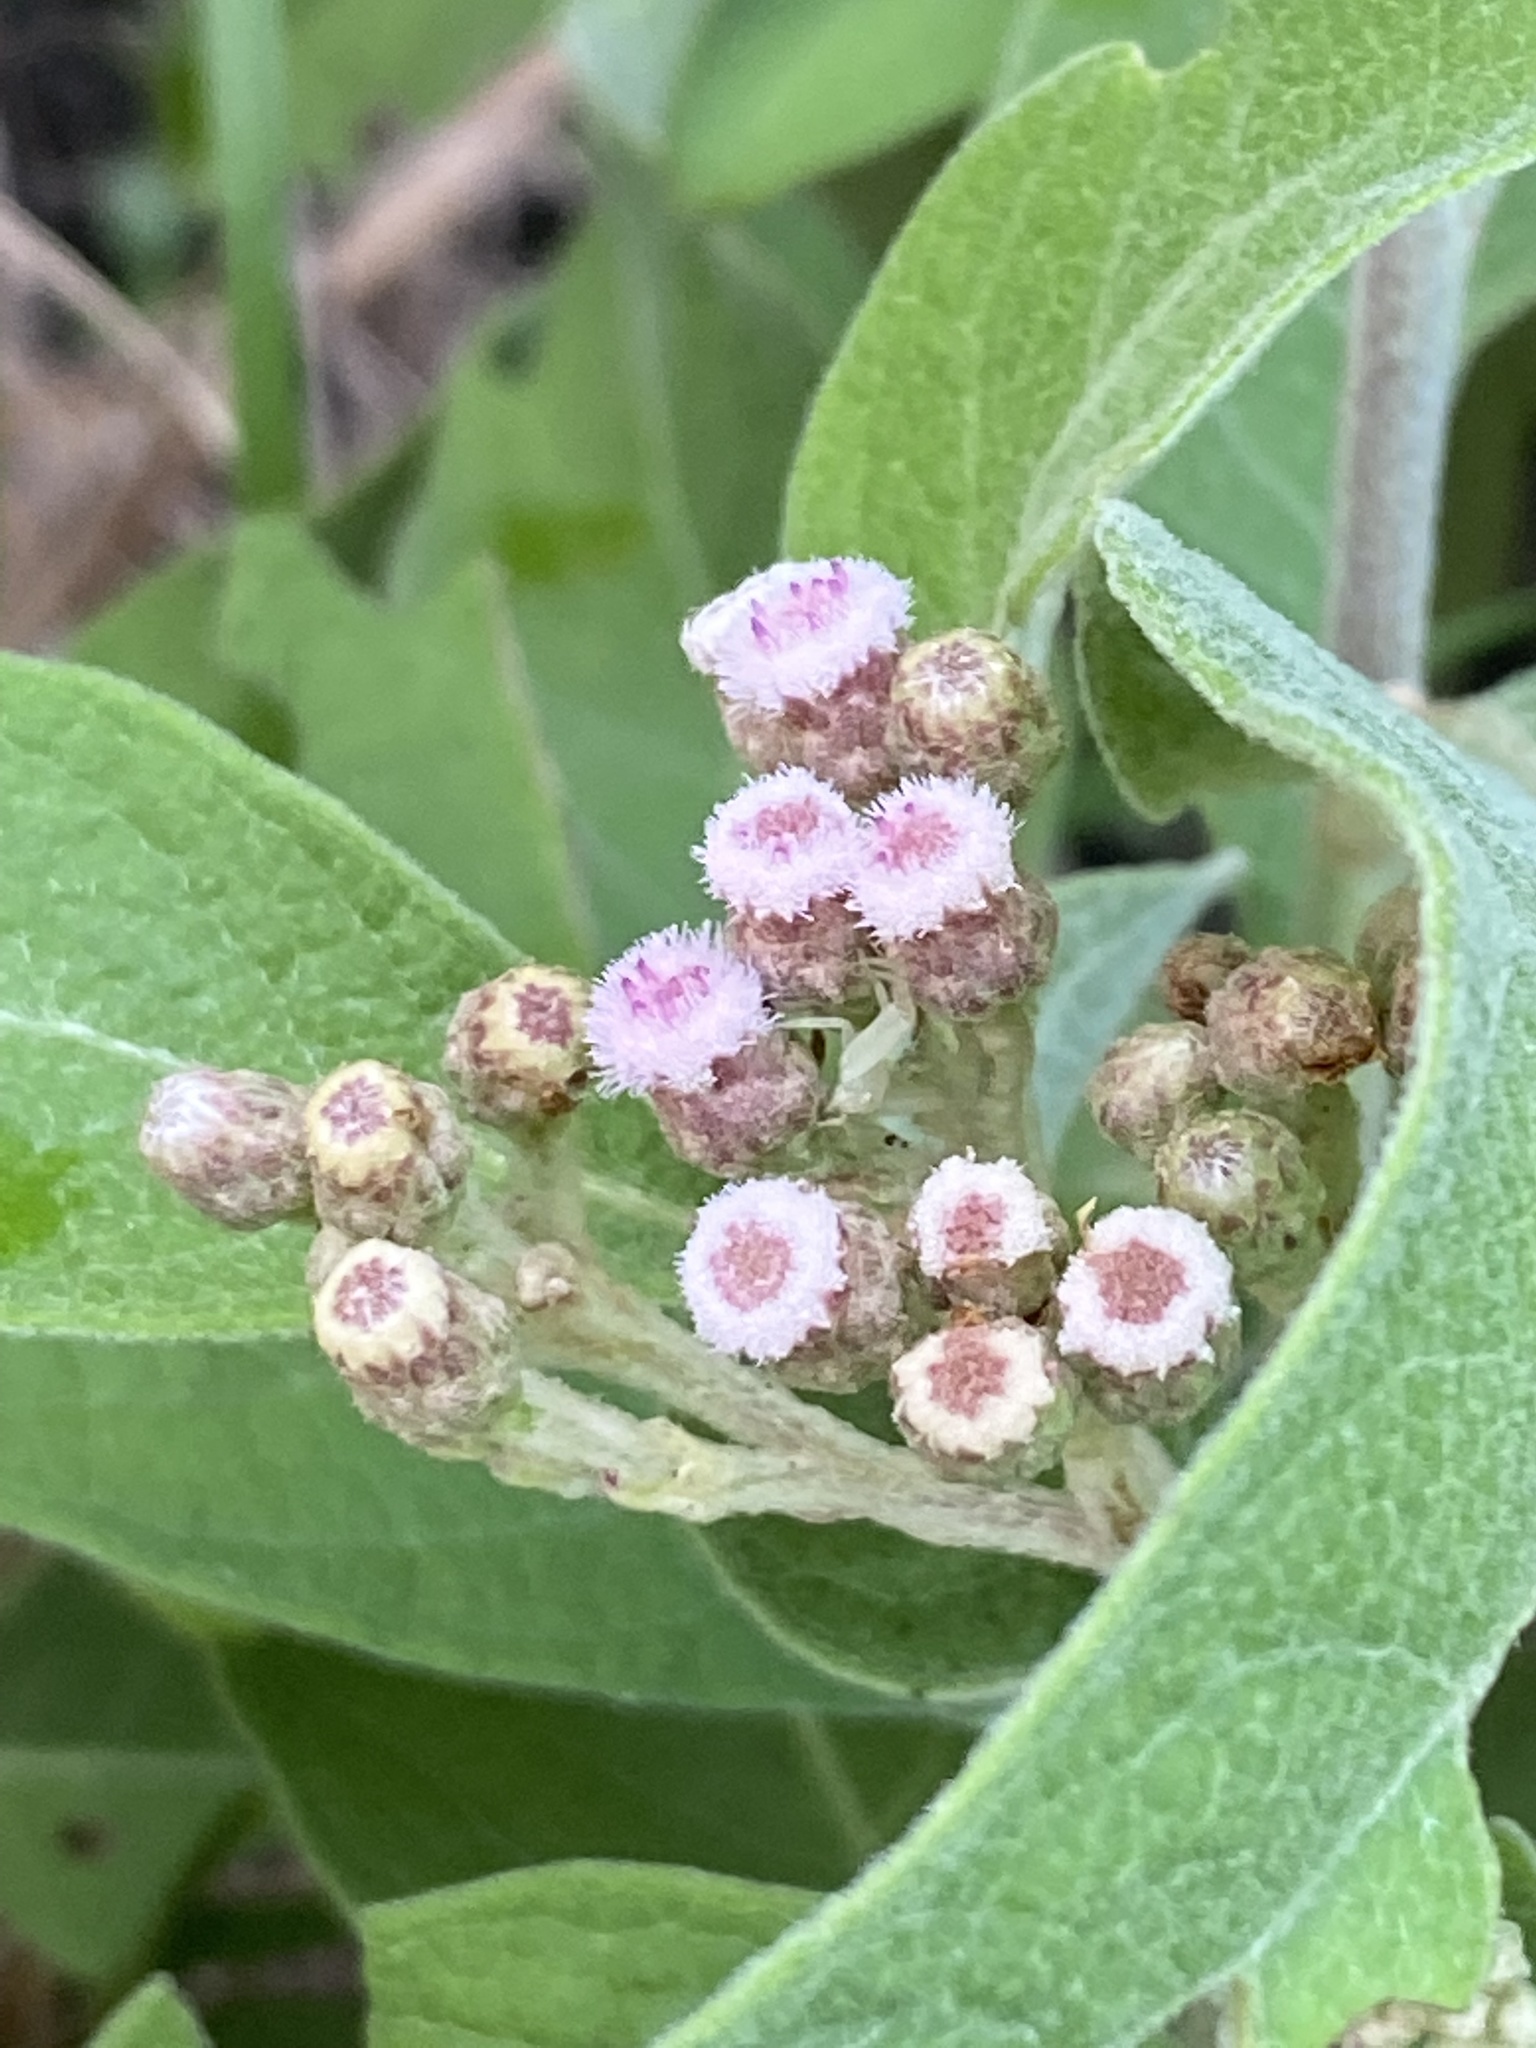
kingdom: Plantae
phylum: Tracheophyta
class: Magnoliopsida
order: Asterales
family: Asteraceae
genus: Pluchea
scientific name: Pluchea carolinensis
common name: Marsh fleabane
